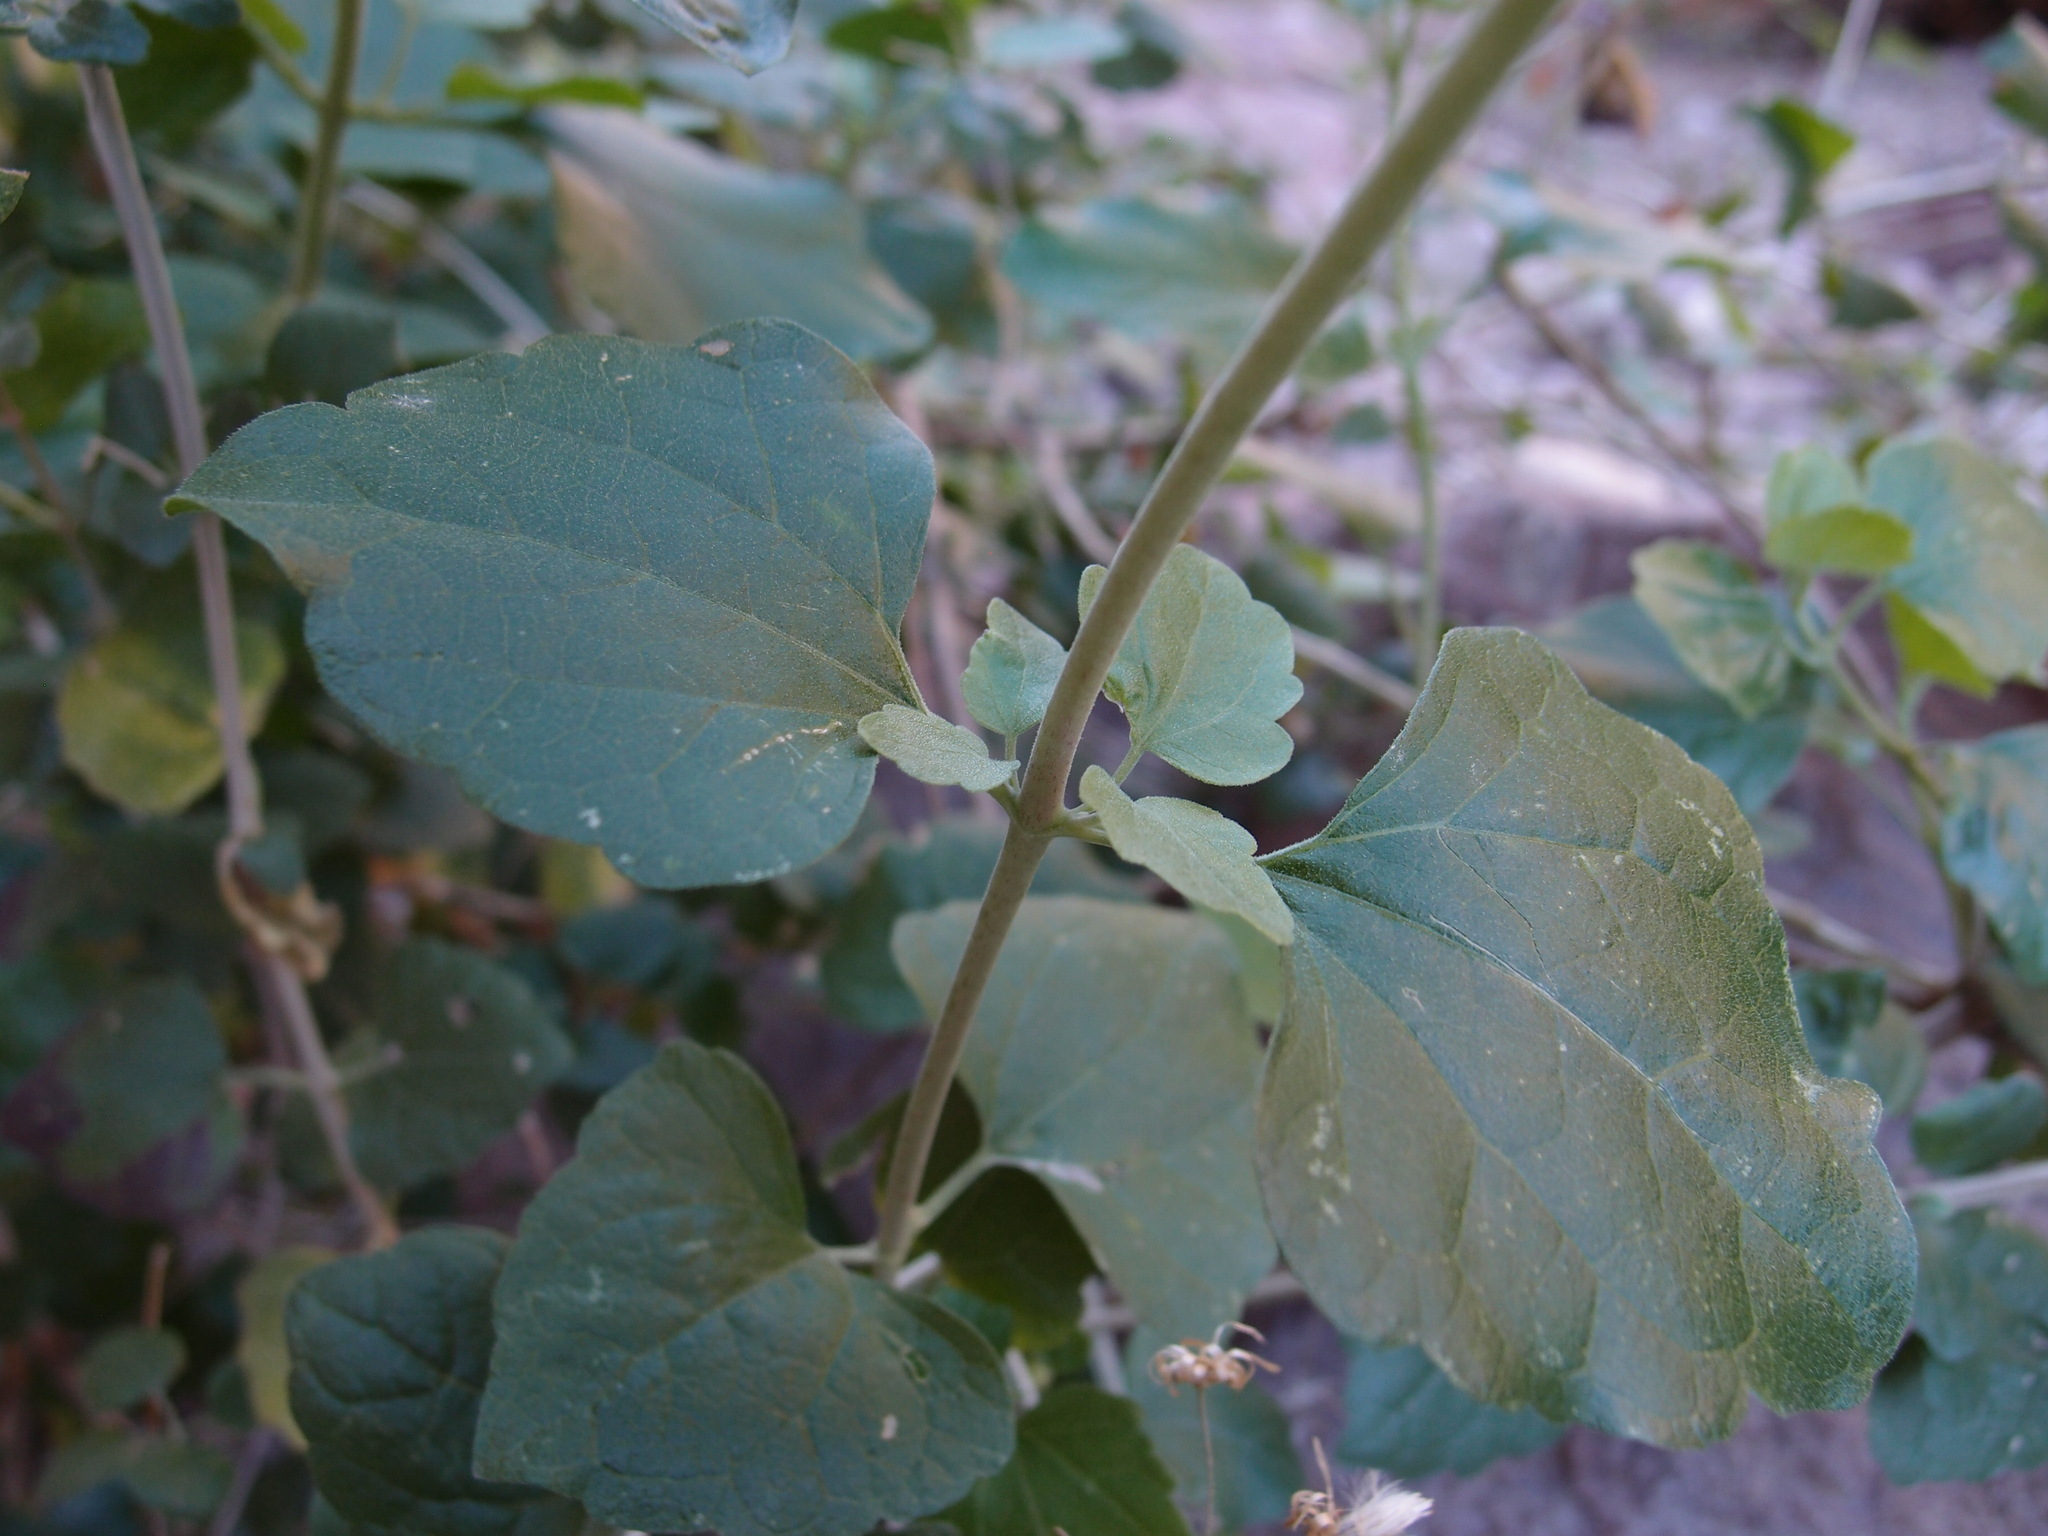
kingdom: Plantae
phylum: Tracheophyta
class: Magnoliopsida
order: Asterales
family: Asteraceae
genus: Brickellia
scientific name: Brickellia rhomboidea
